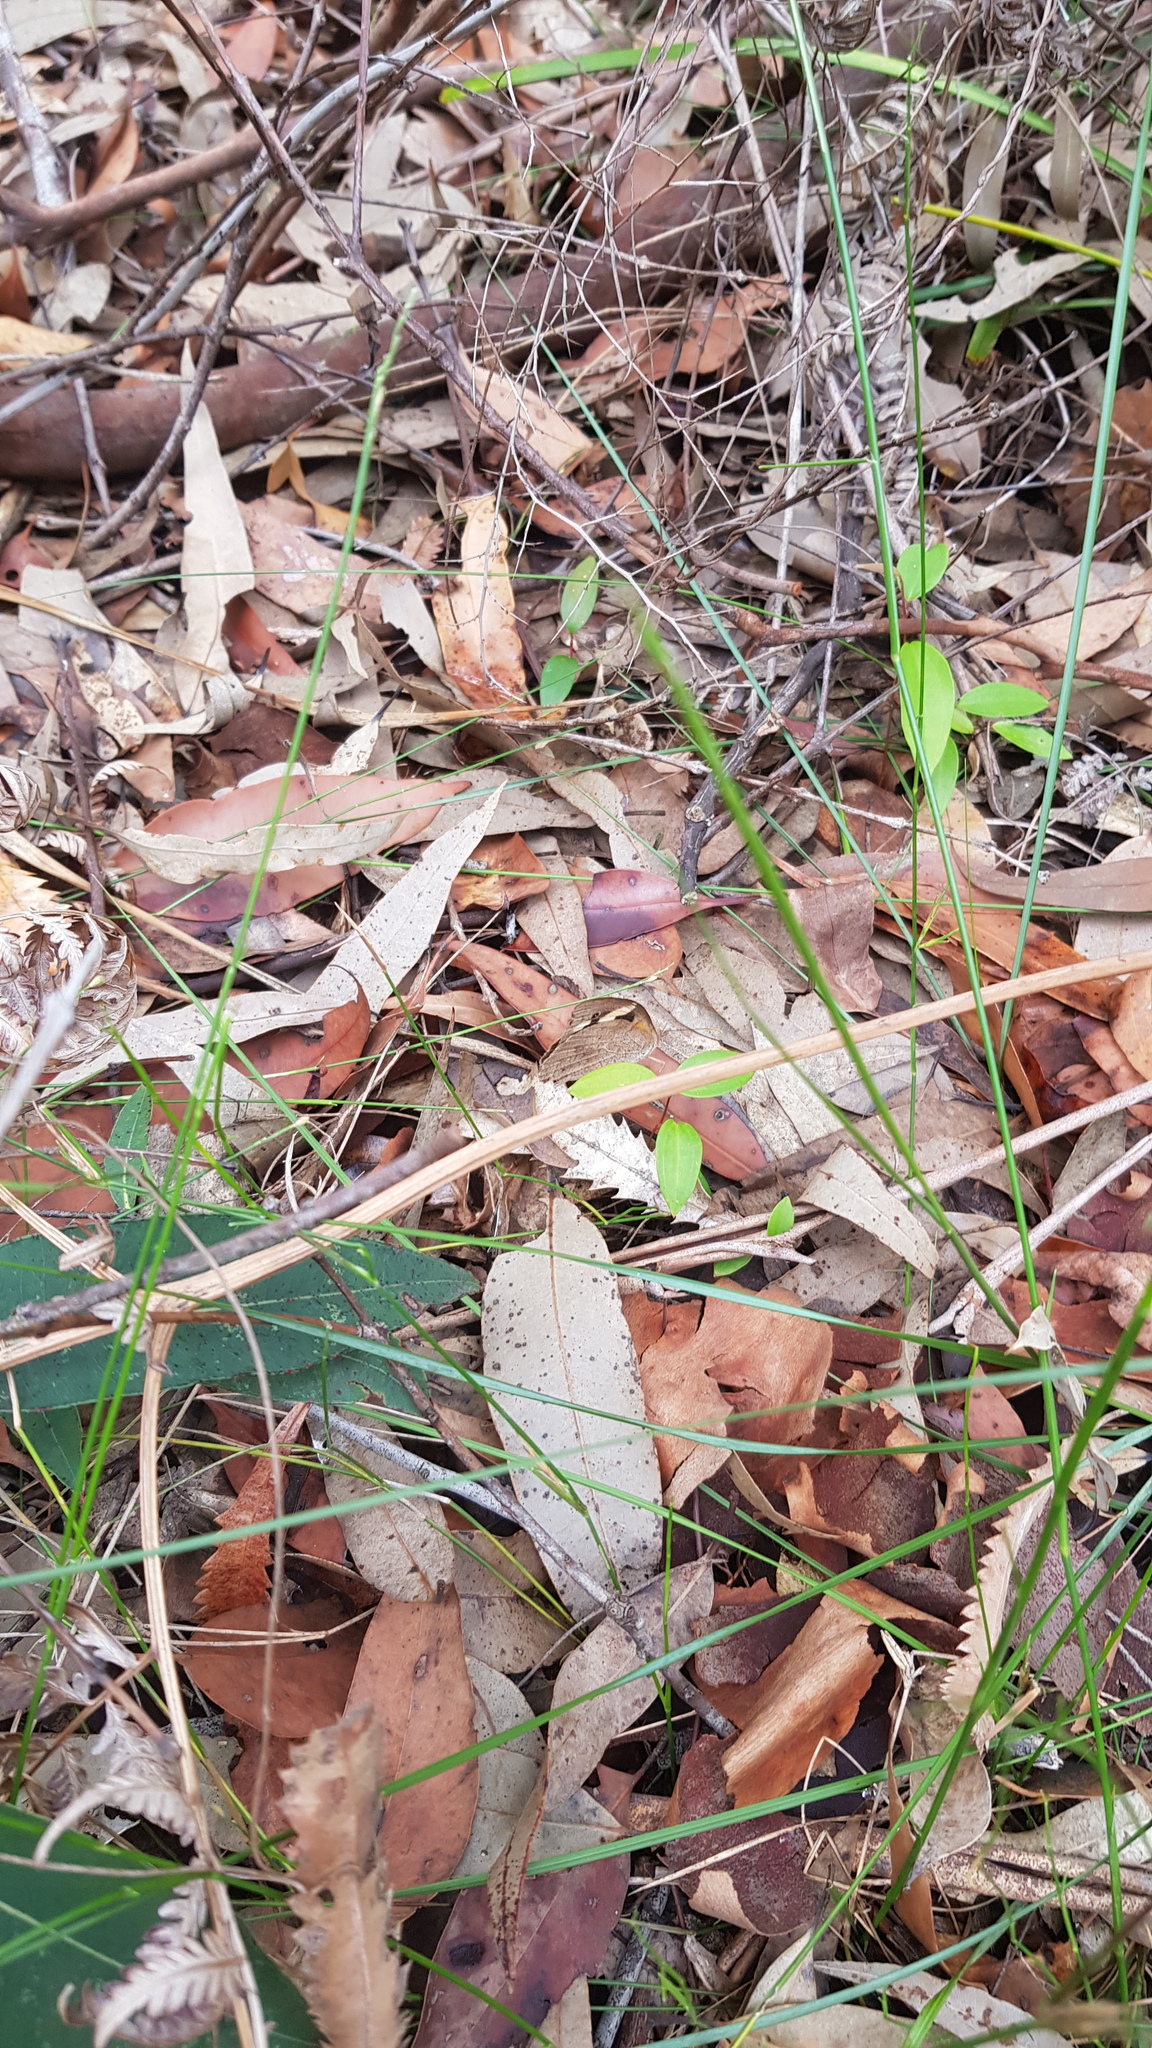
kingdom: Animalia
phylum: Arthropoda
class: Insecta
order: Lepidoptera
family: Nymphalidae
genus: Heteronympha
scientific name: Heteronympha merope
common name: Common brown
